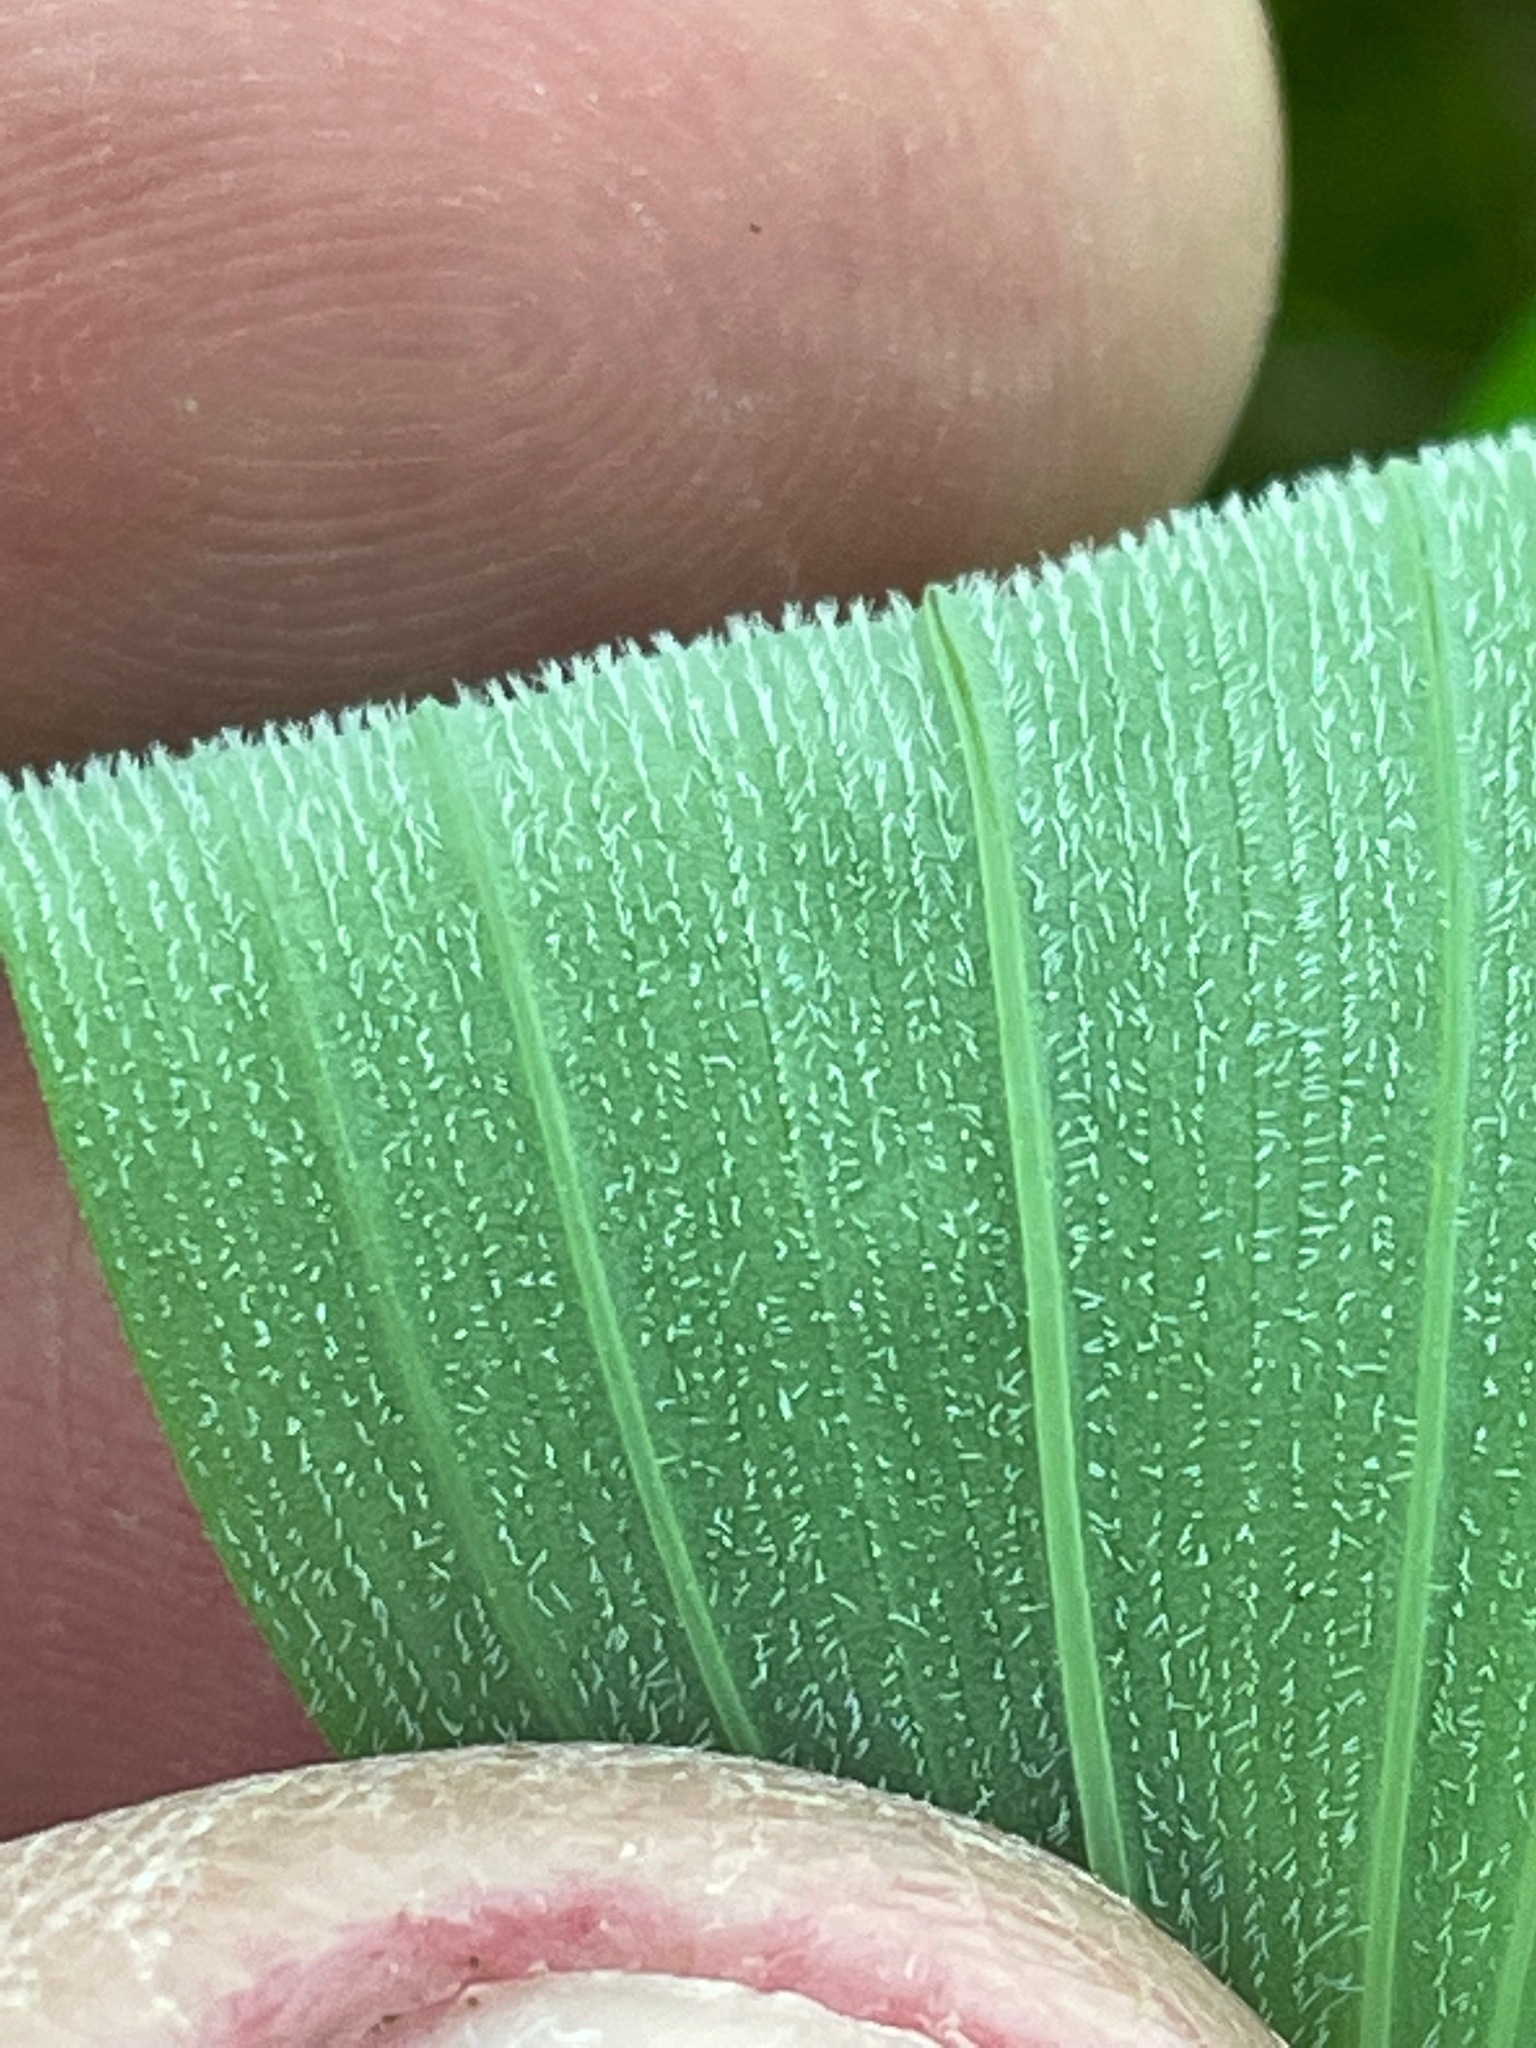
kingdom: Plantae
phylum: Tracheophyta
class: Liliopsida
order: Asparagales
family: Asparagaceae
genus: Polygonatum
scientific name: Polygonatum pubescens
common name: Downy solomon's seal
